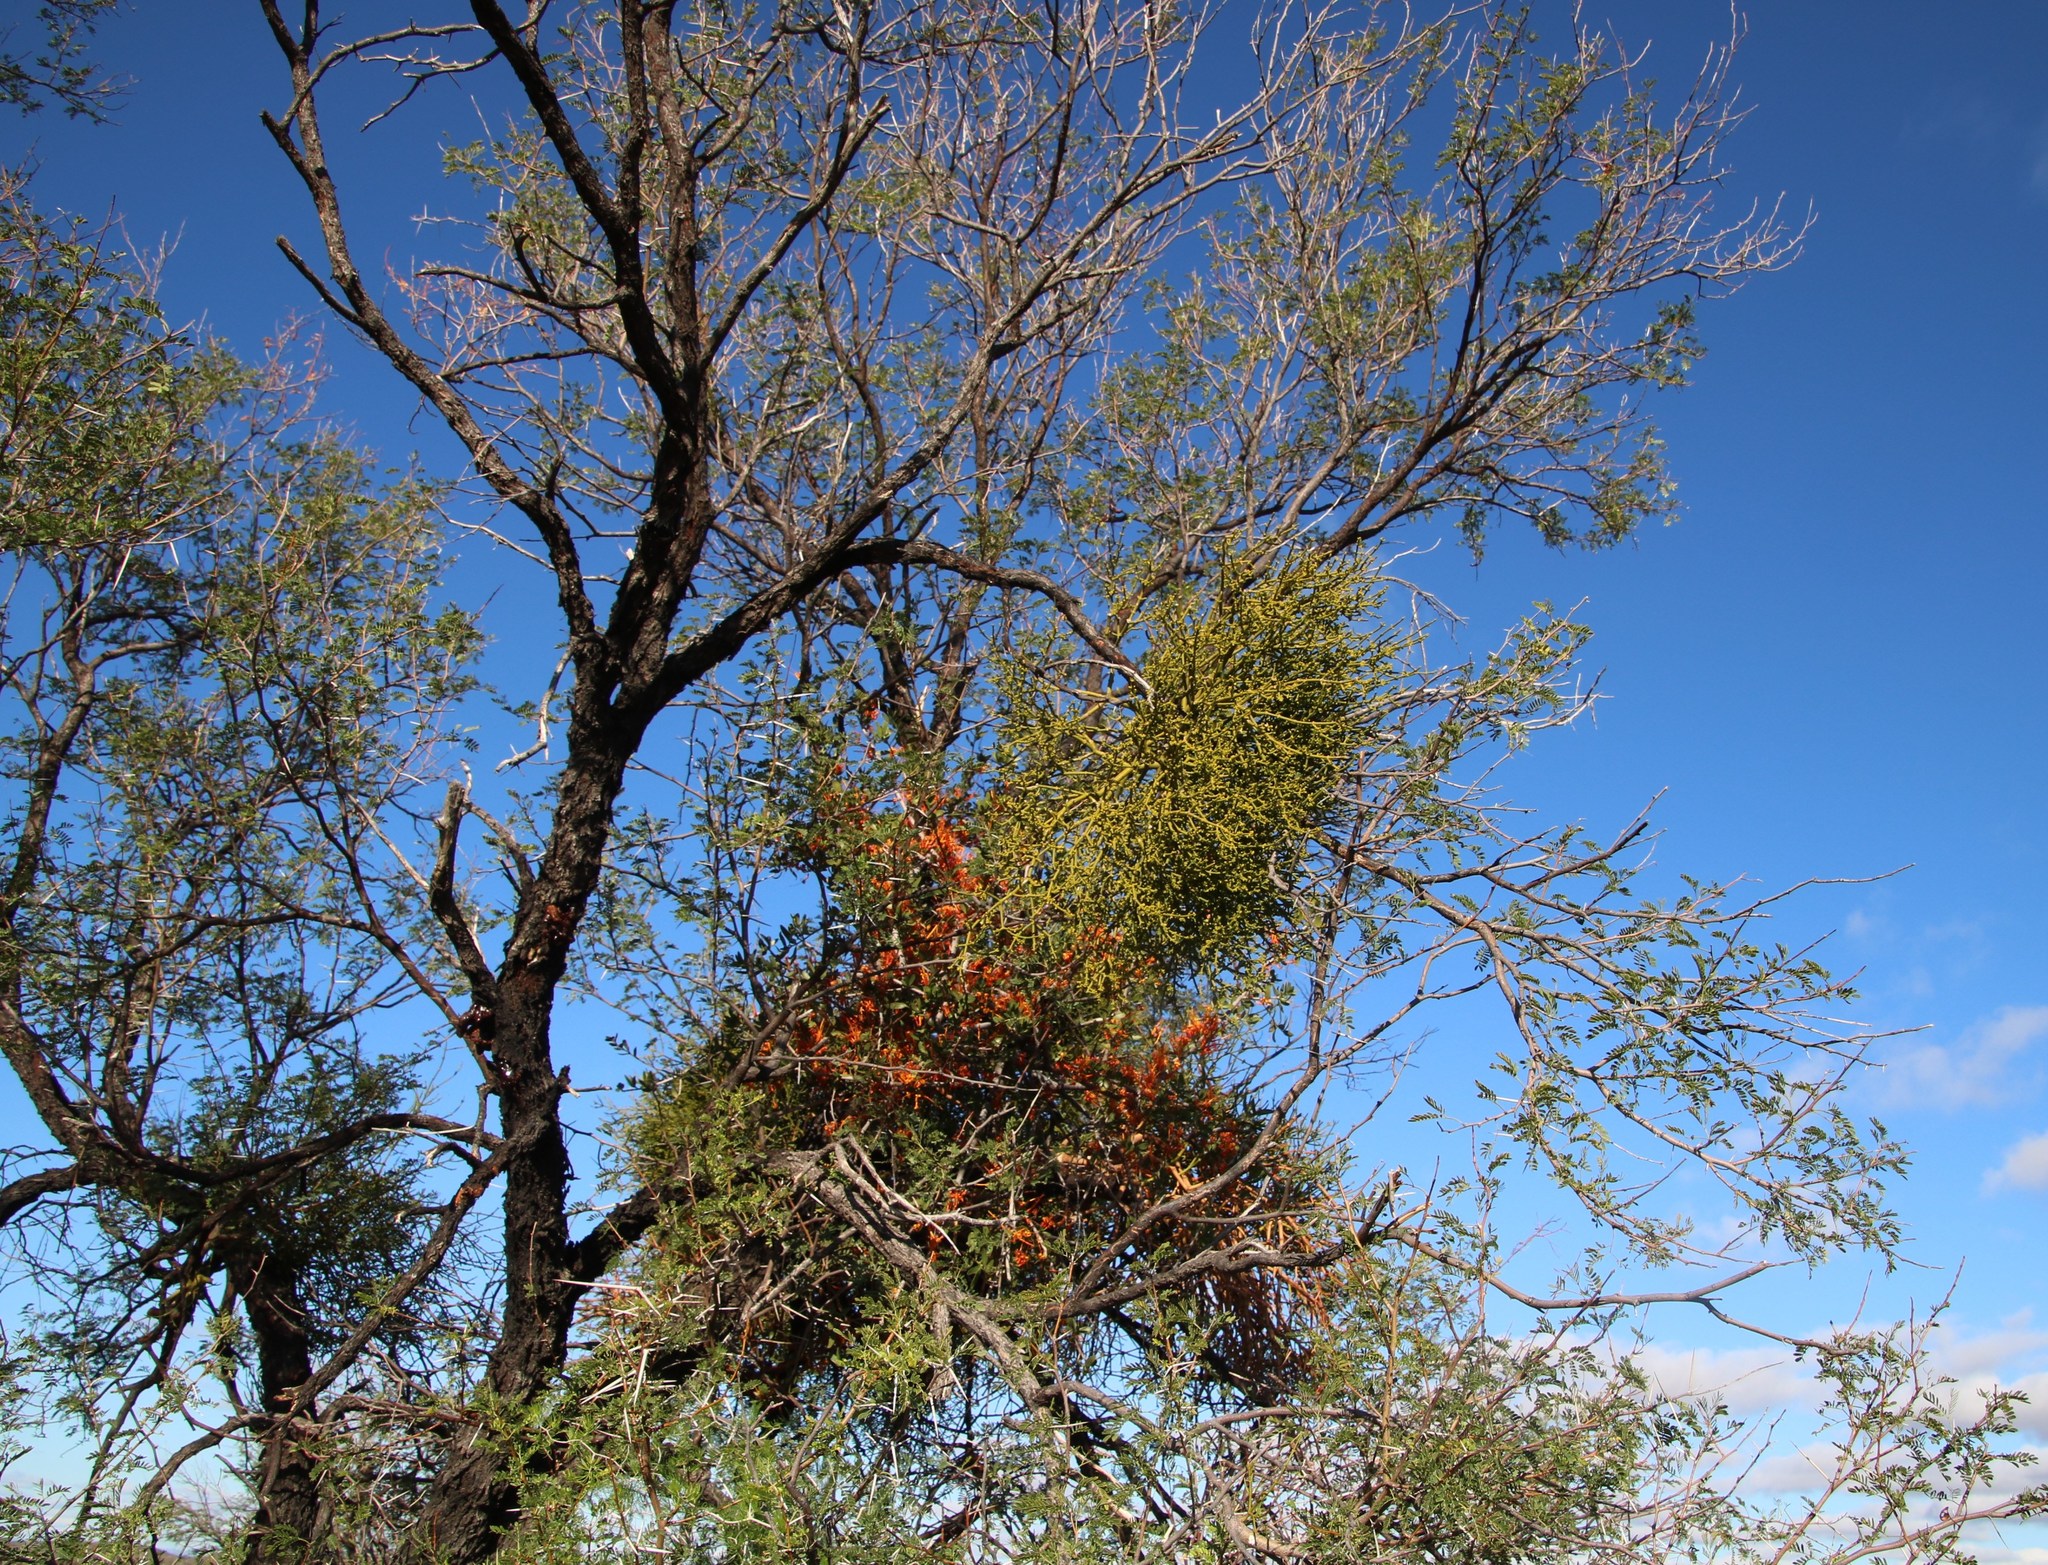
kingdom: Plantae
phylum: Tracheophyta
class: Magnoliopsida
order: Fabales
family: Fabaceae
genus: Vachellia
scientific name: Vachellia karroo
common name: Sweet thorn
